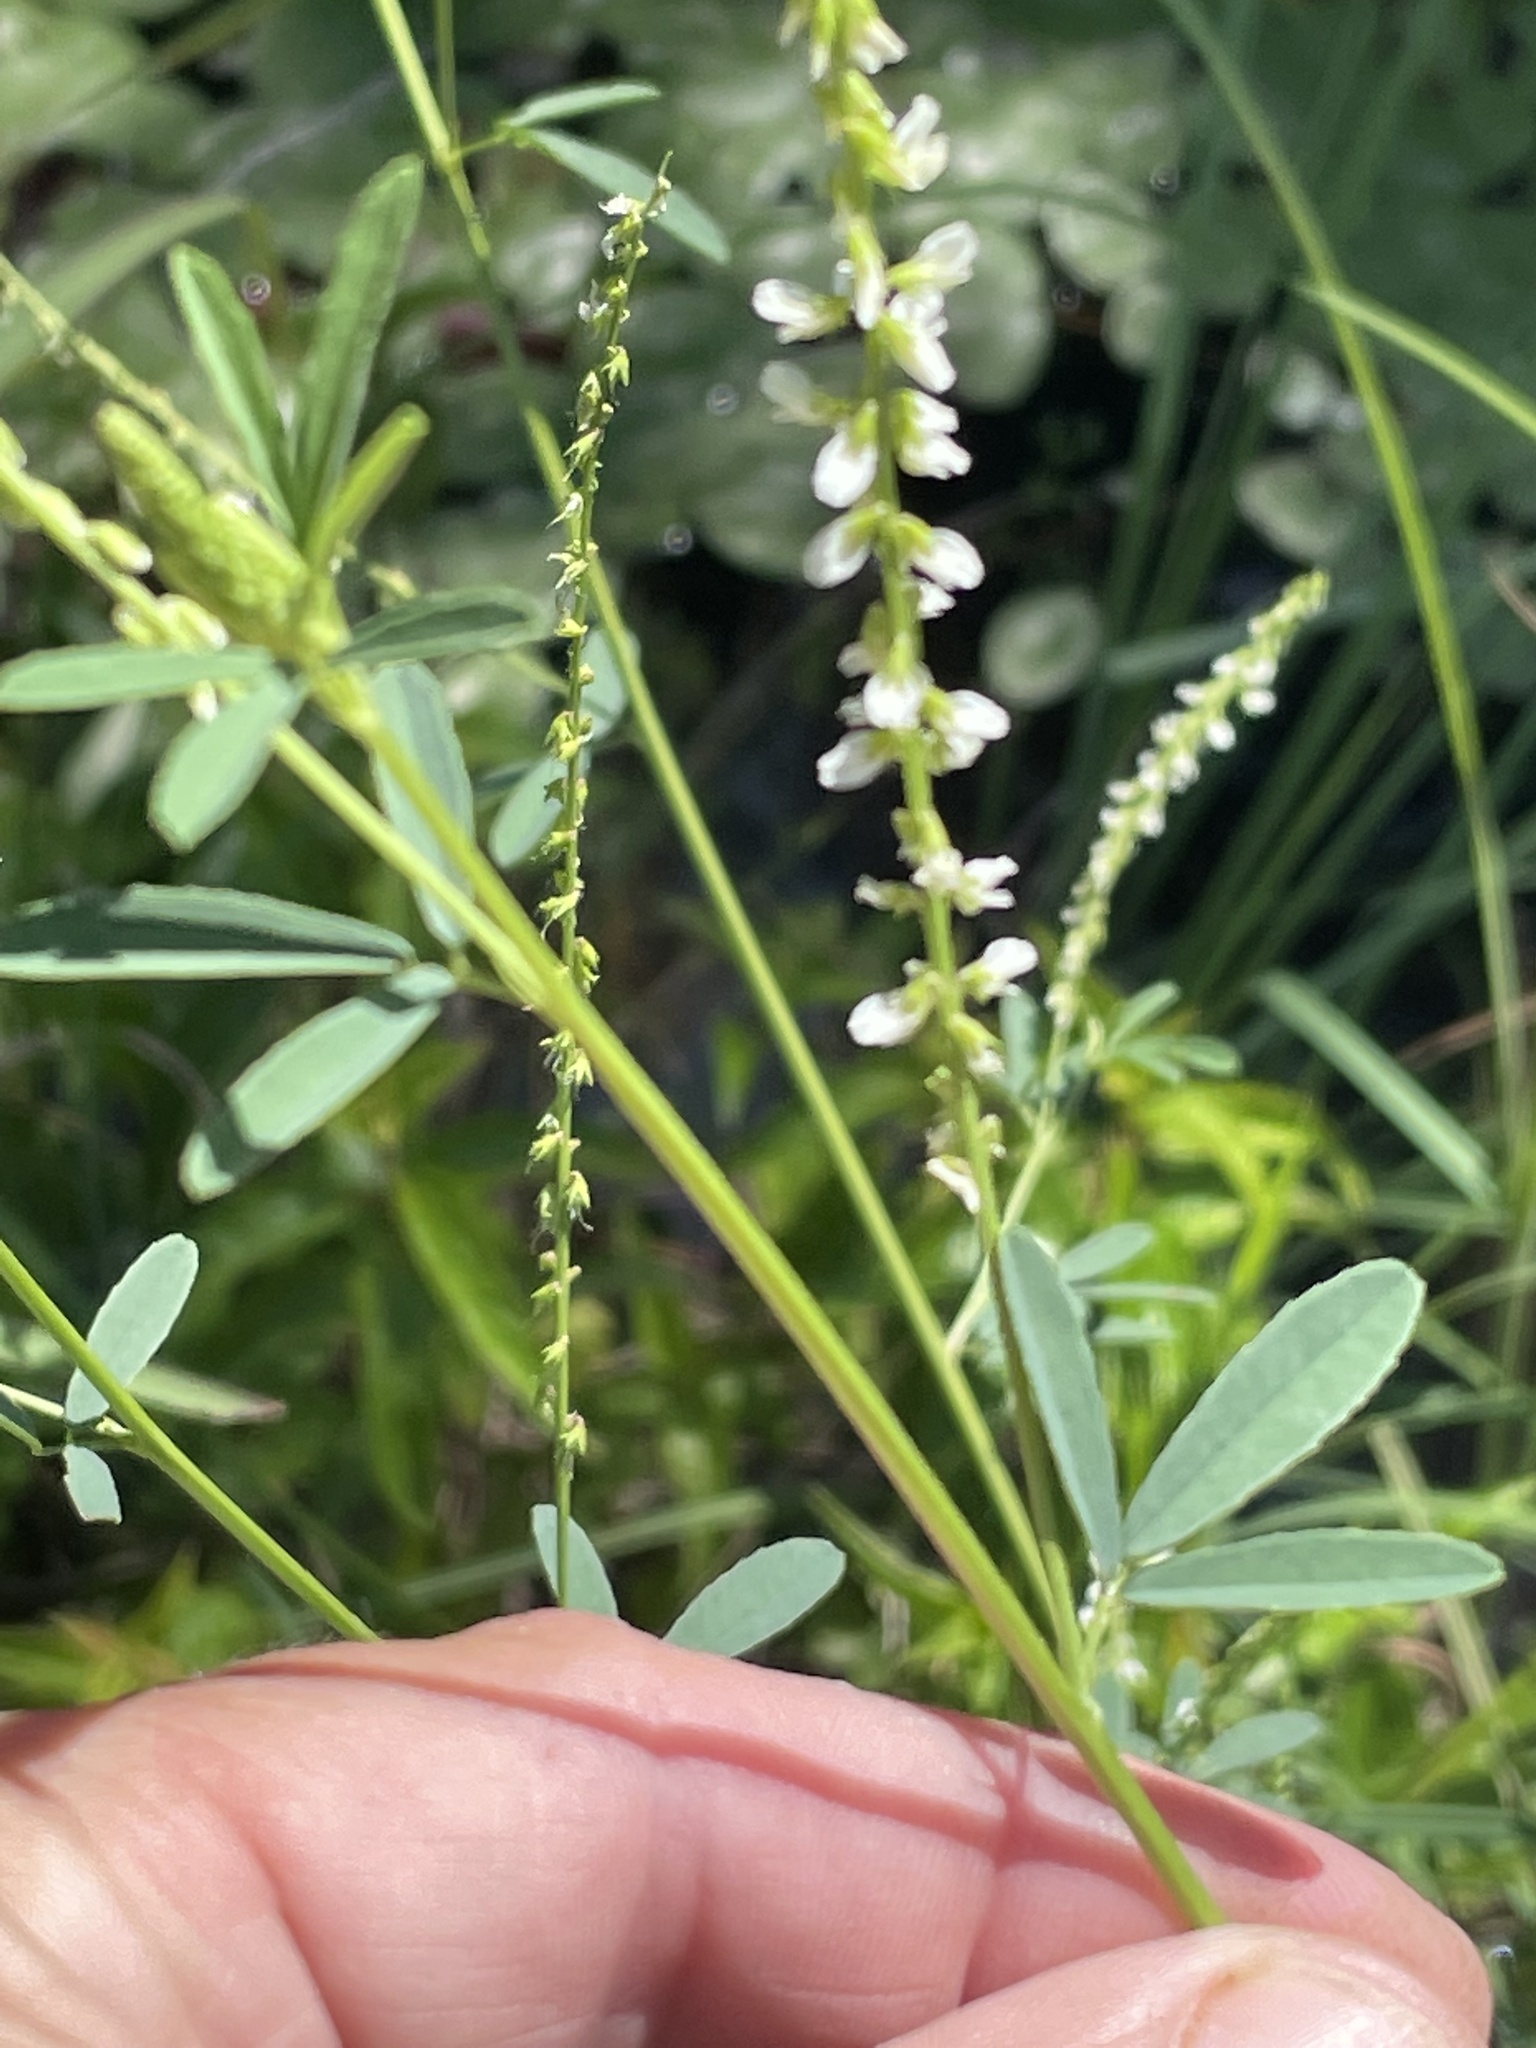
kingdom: Plantae
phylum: Tracheophyta
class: Magnoliopsida
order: Fabales
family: Fabaceae
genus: Melilotus
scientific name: Melilotus albus
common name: White melilot
